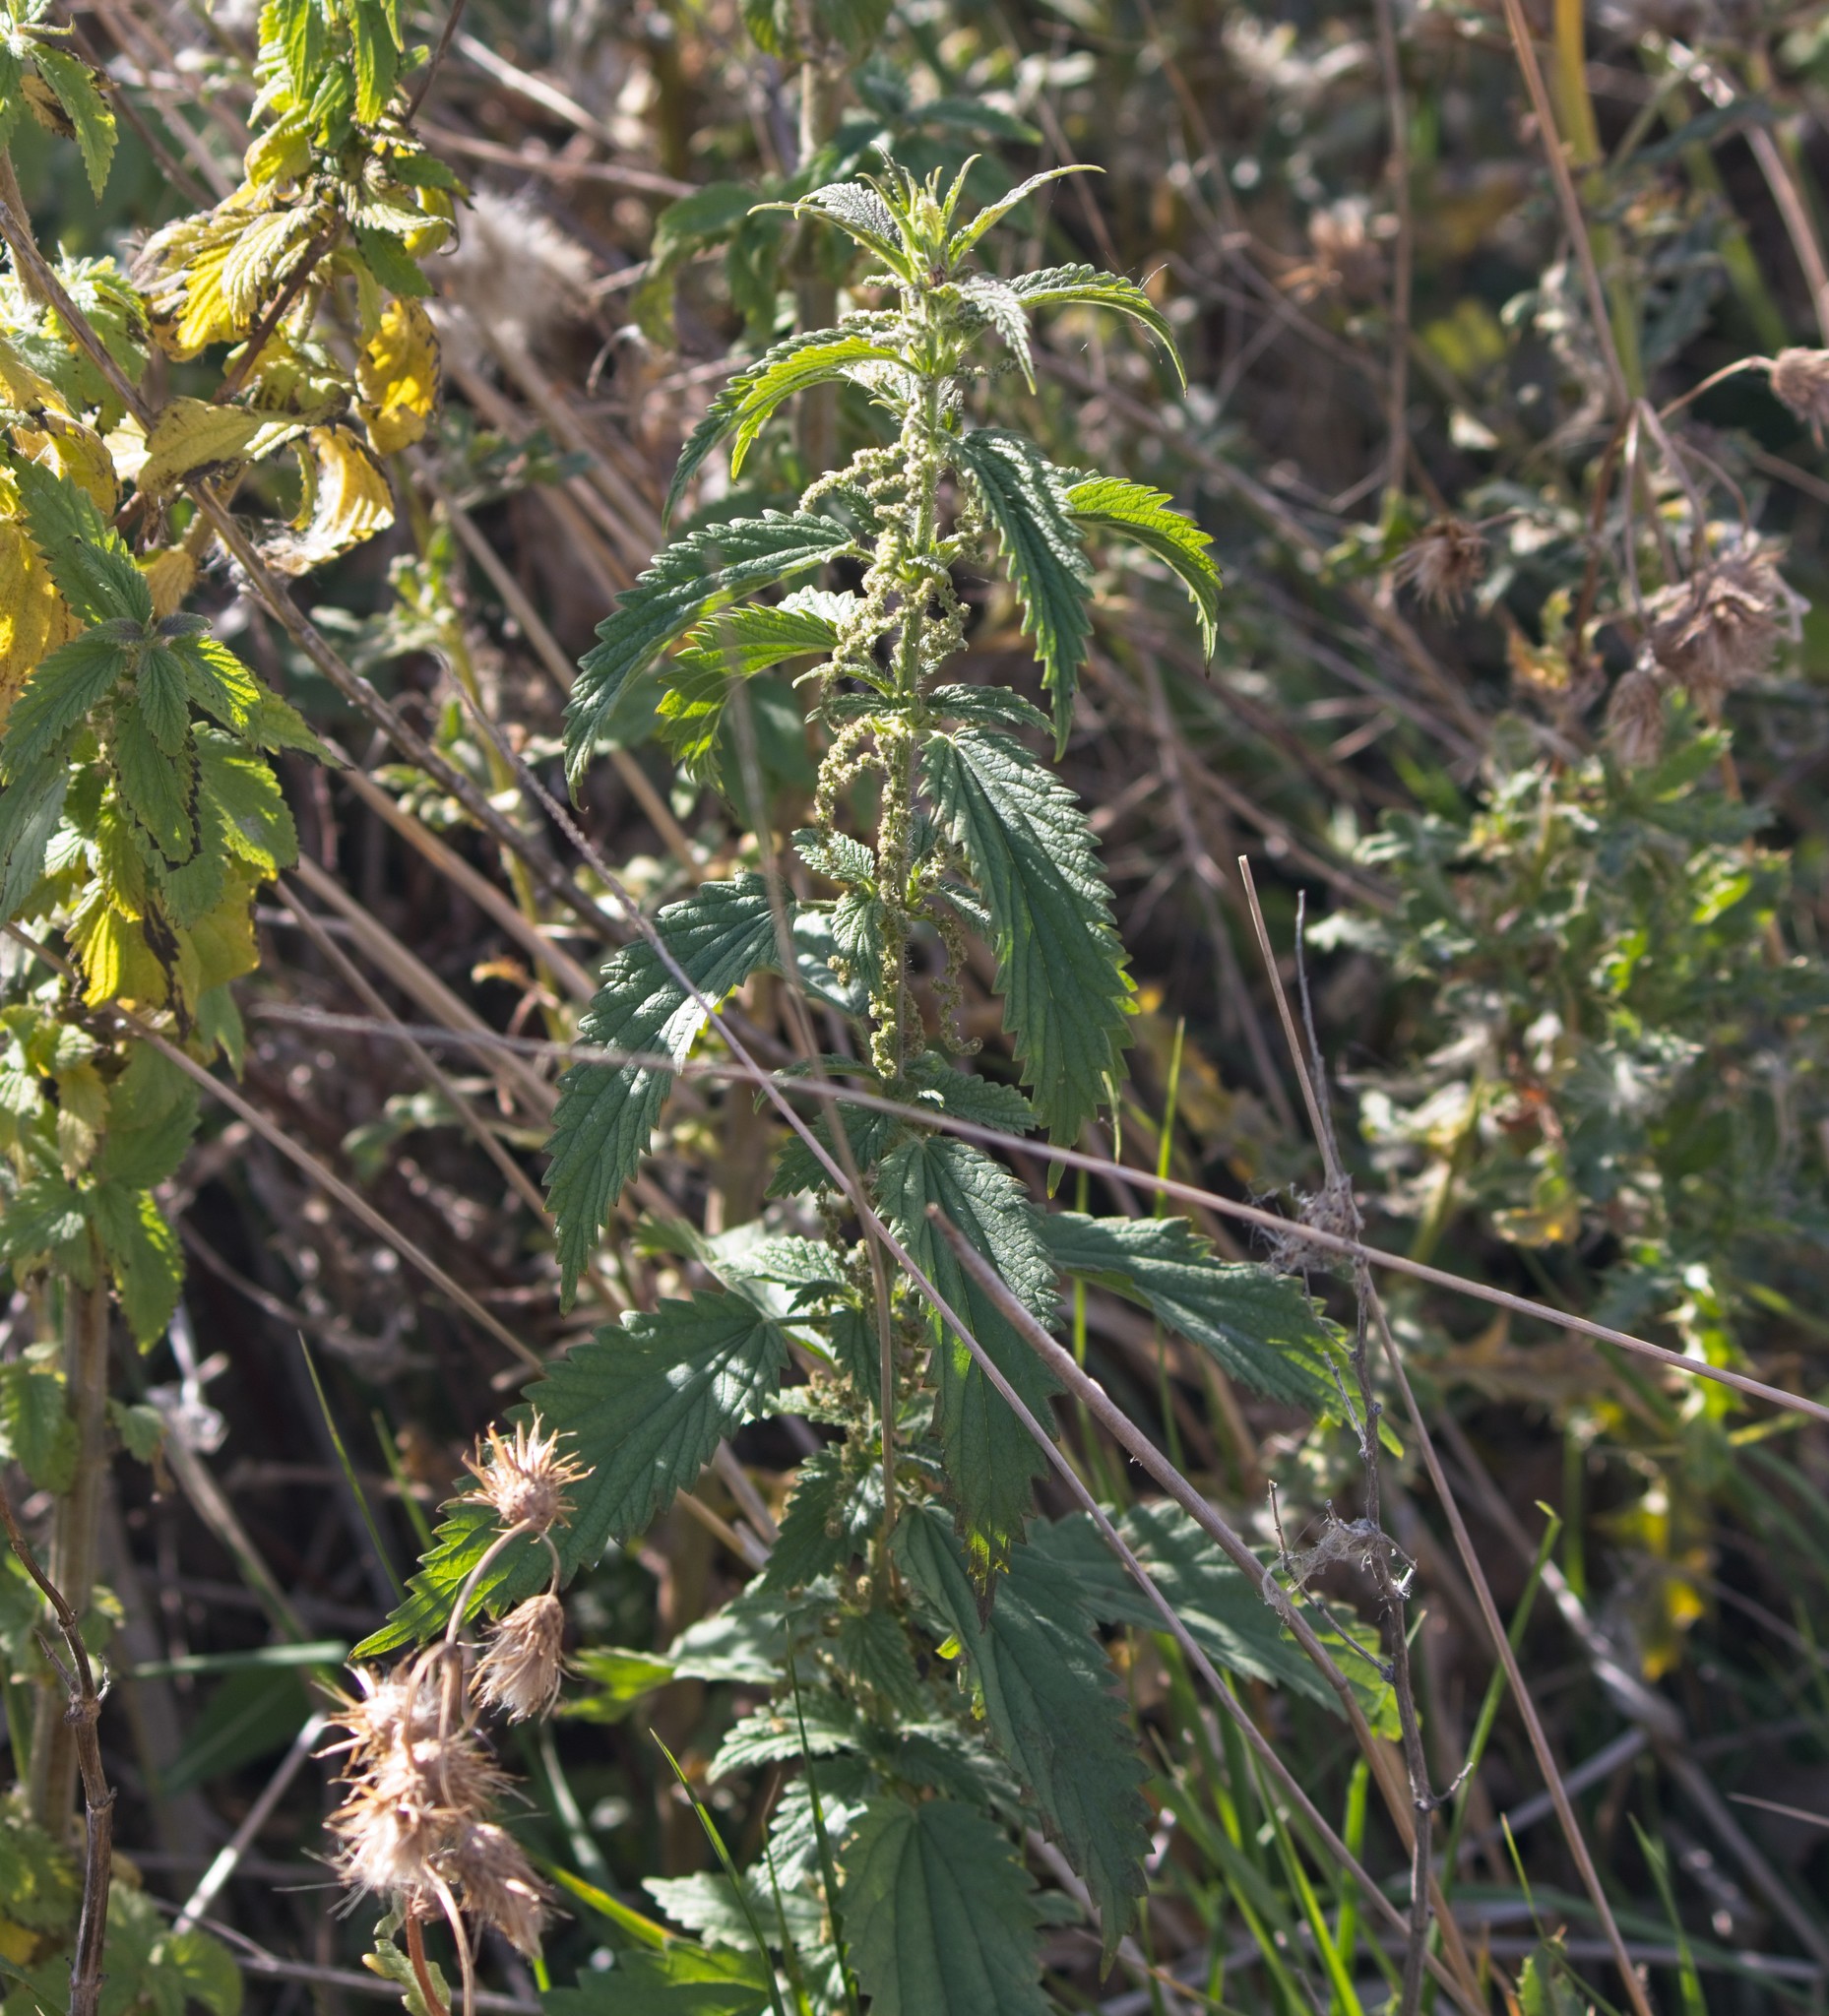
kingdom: Plantae
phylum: Tracheophyta
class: Magnoliopsida
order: Rosales
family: Urticaceae
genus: Urtica
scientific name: Urtica dioica
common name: Common nettle
